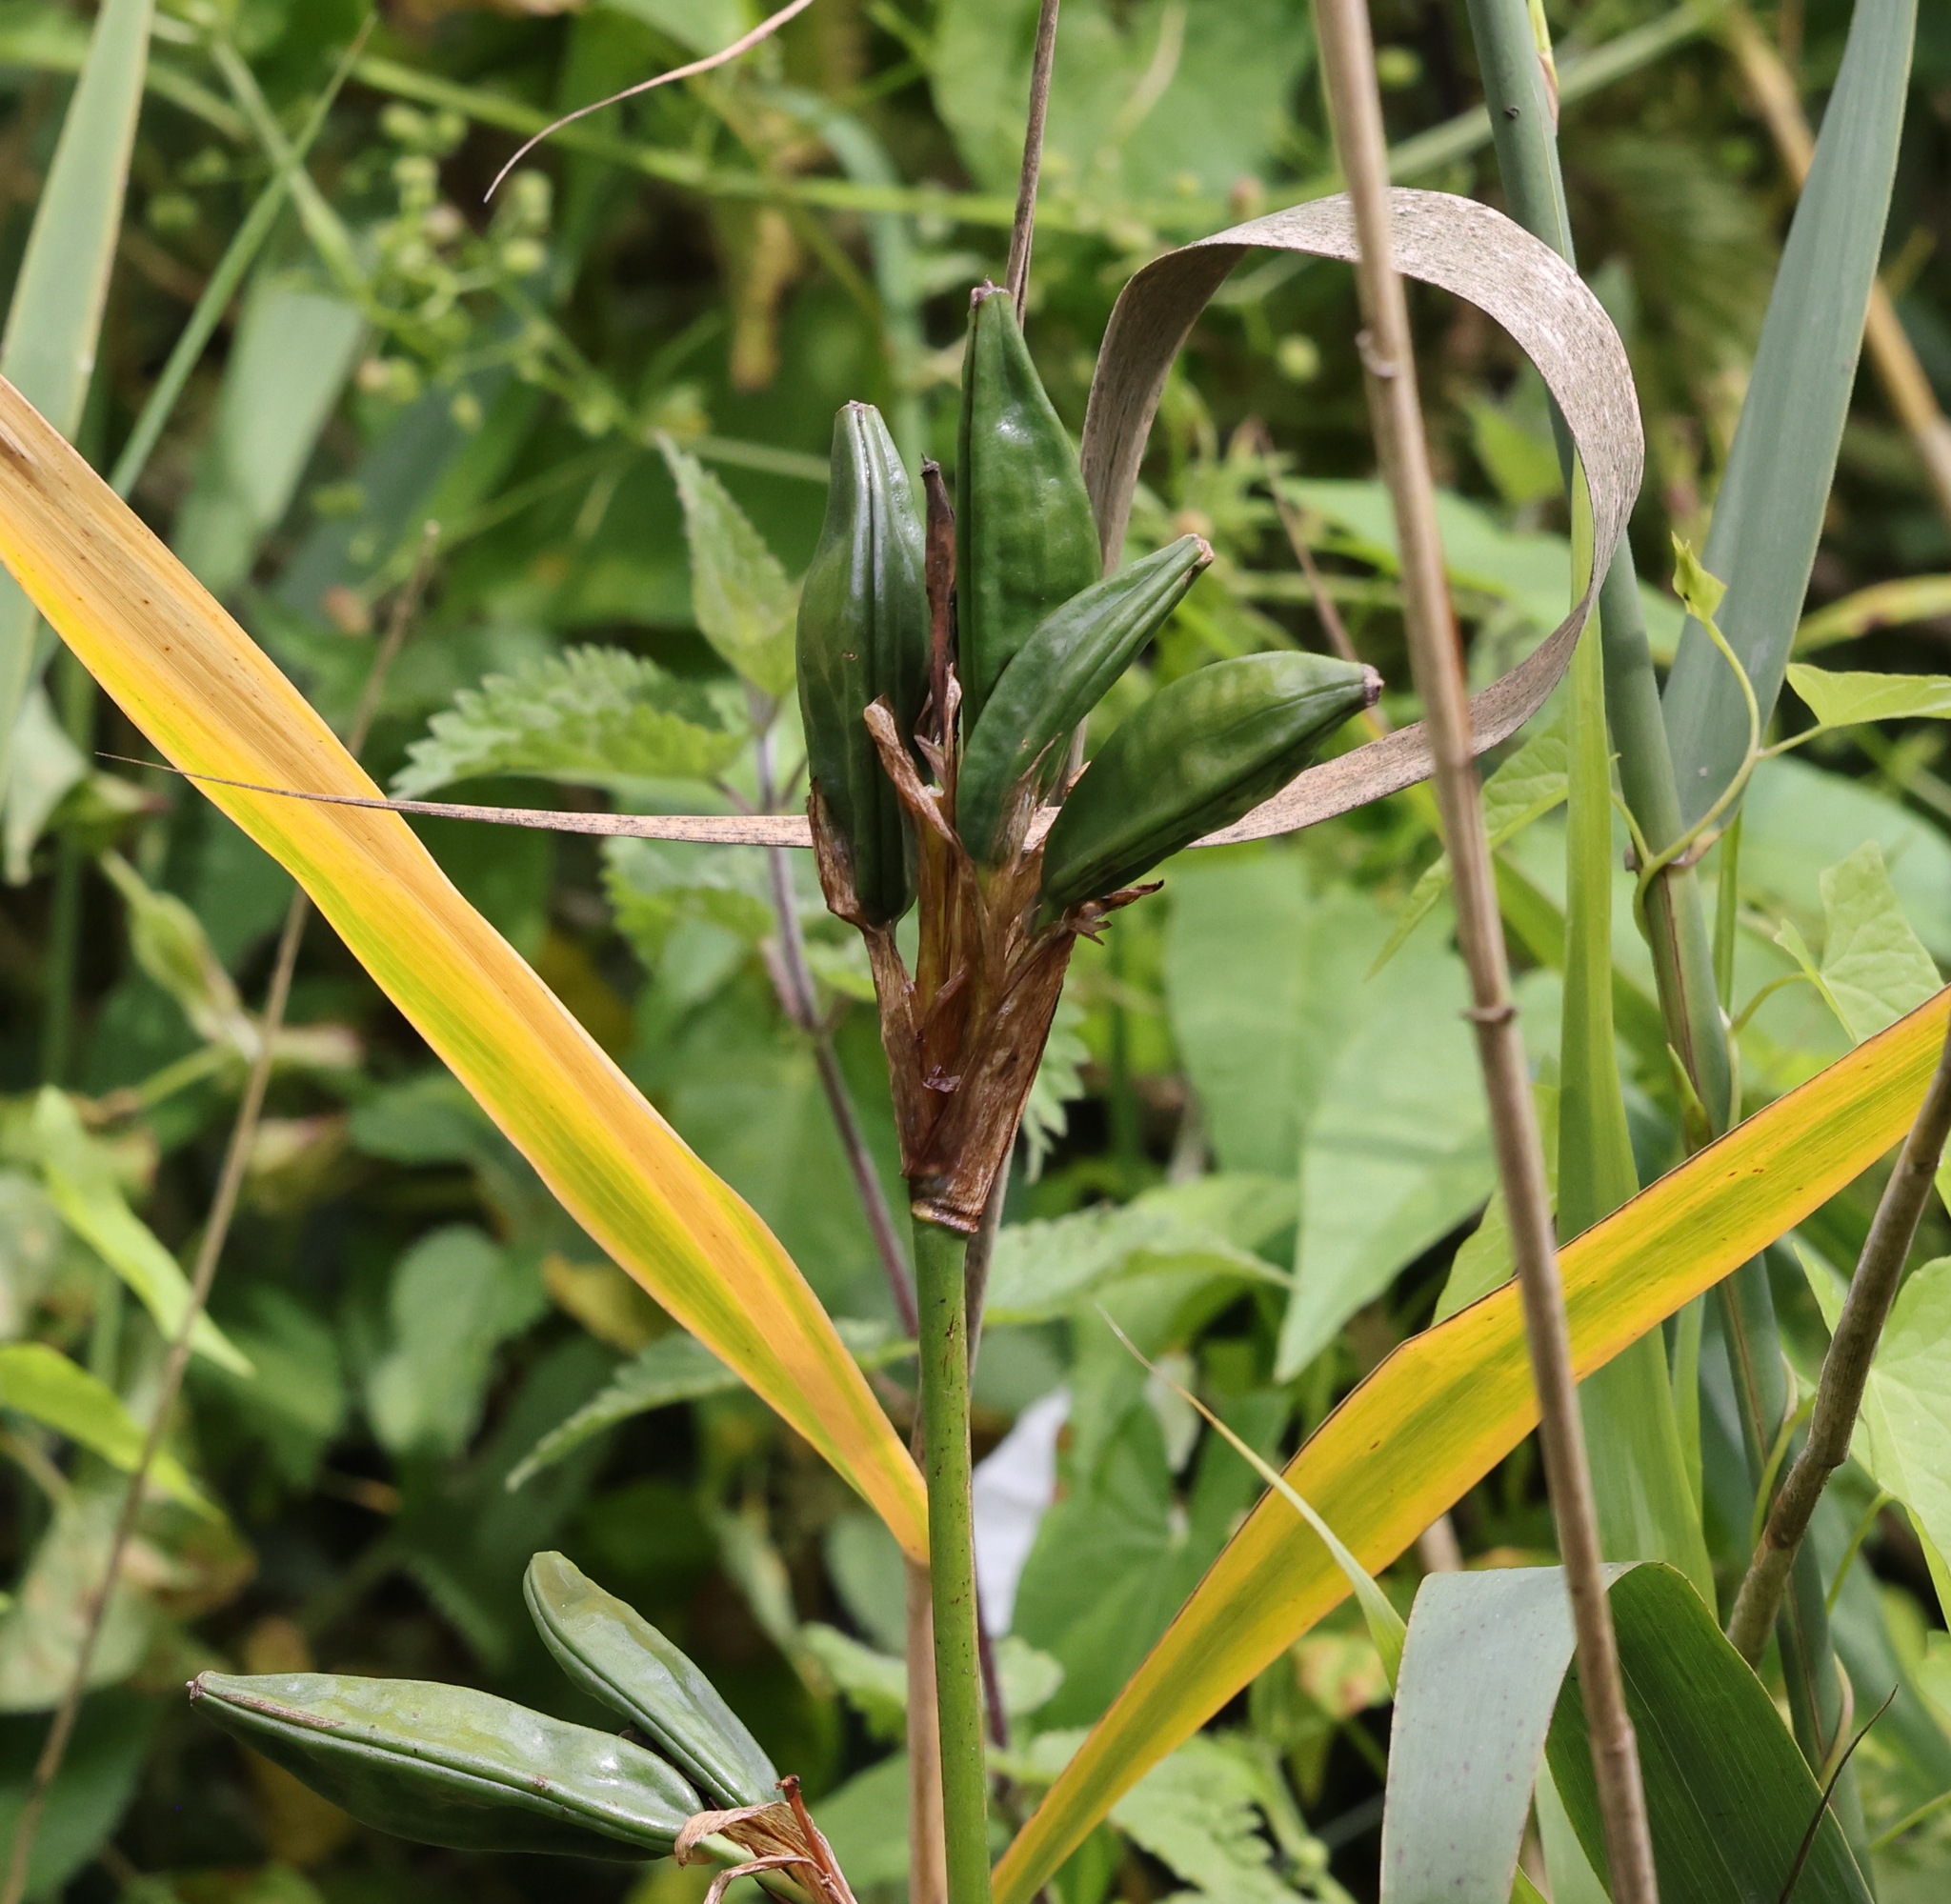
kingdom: Plantae
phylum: Tracheophyta
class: Liliopsida
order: Asparagales
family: Iridaceae
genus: Iris
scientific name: Iris pseudacorus
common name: Yellow flag
